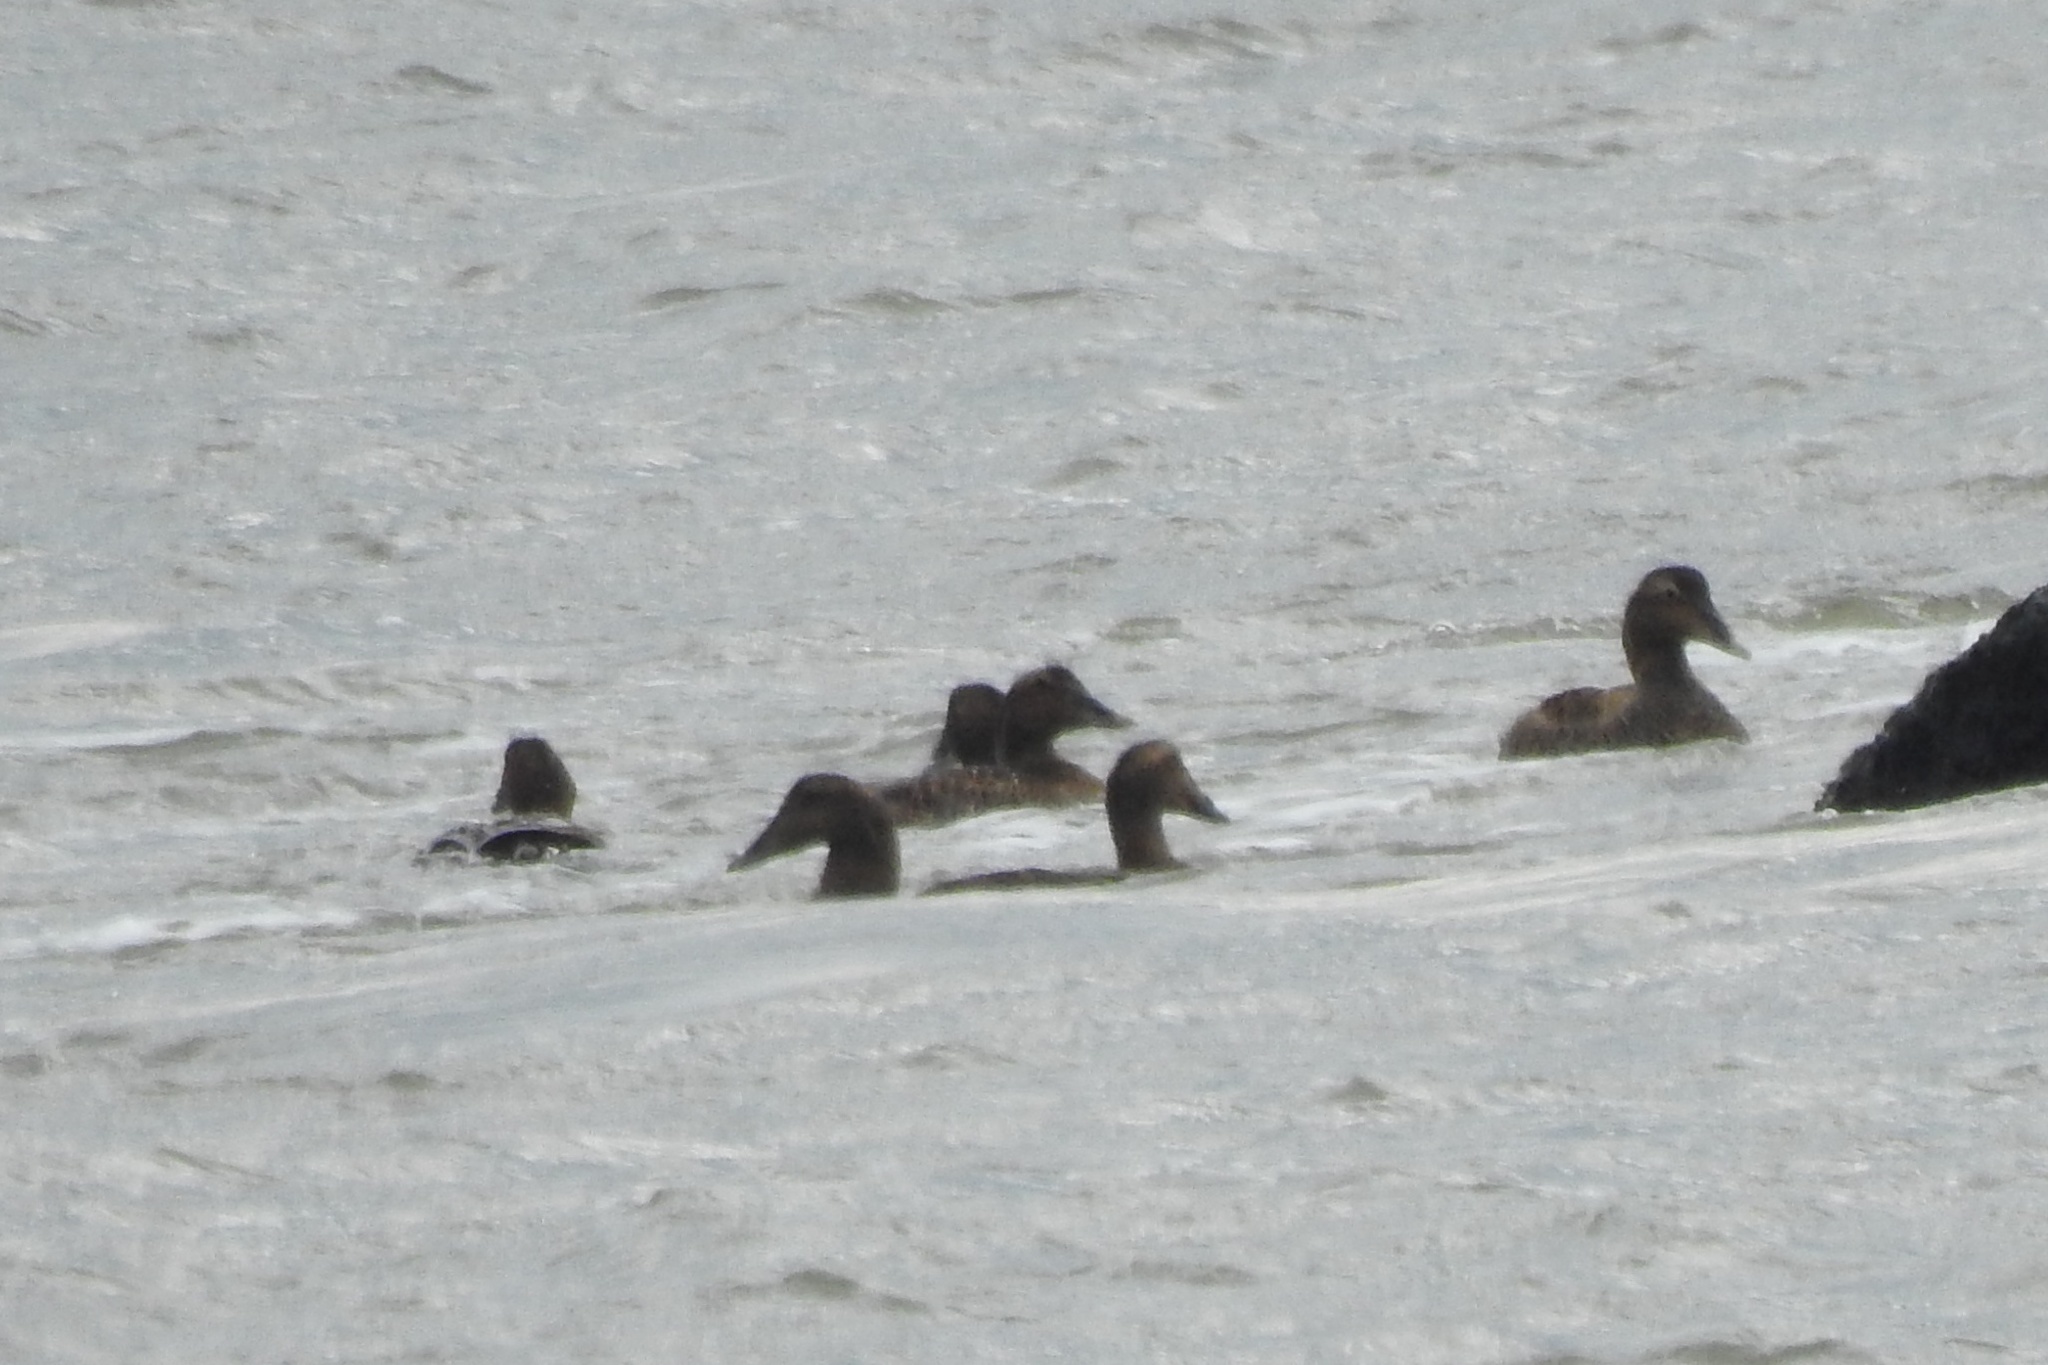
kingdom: Animalia
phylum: Chordata
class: Aves
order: Anseriformes
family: Anatidae
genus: Somateria
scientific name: Somateria mollissima
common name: Common eider
